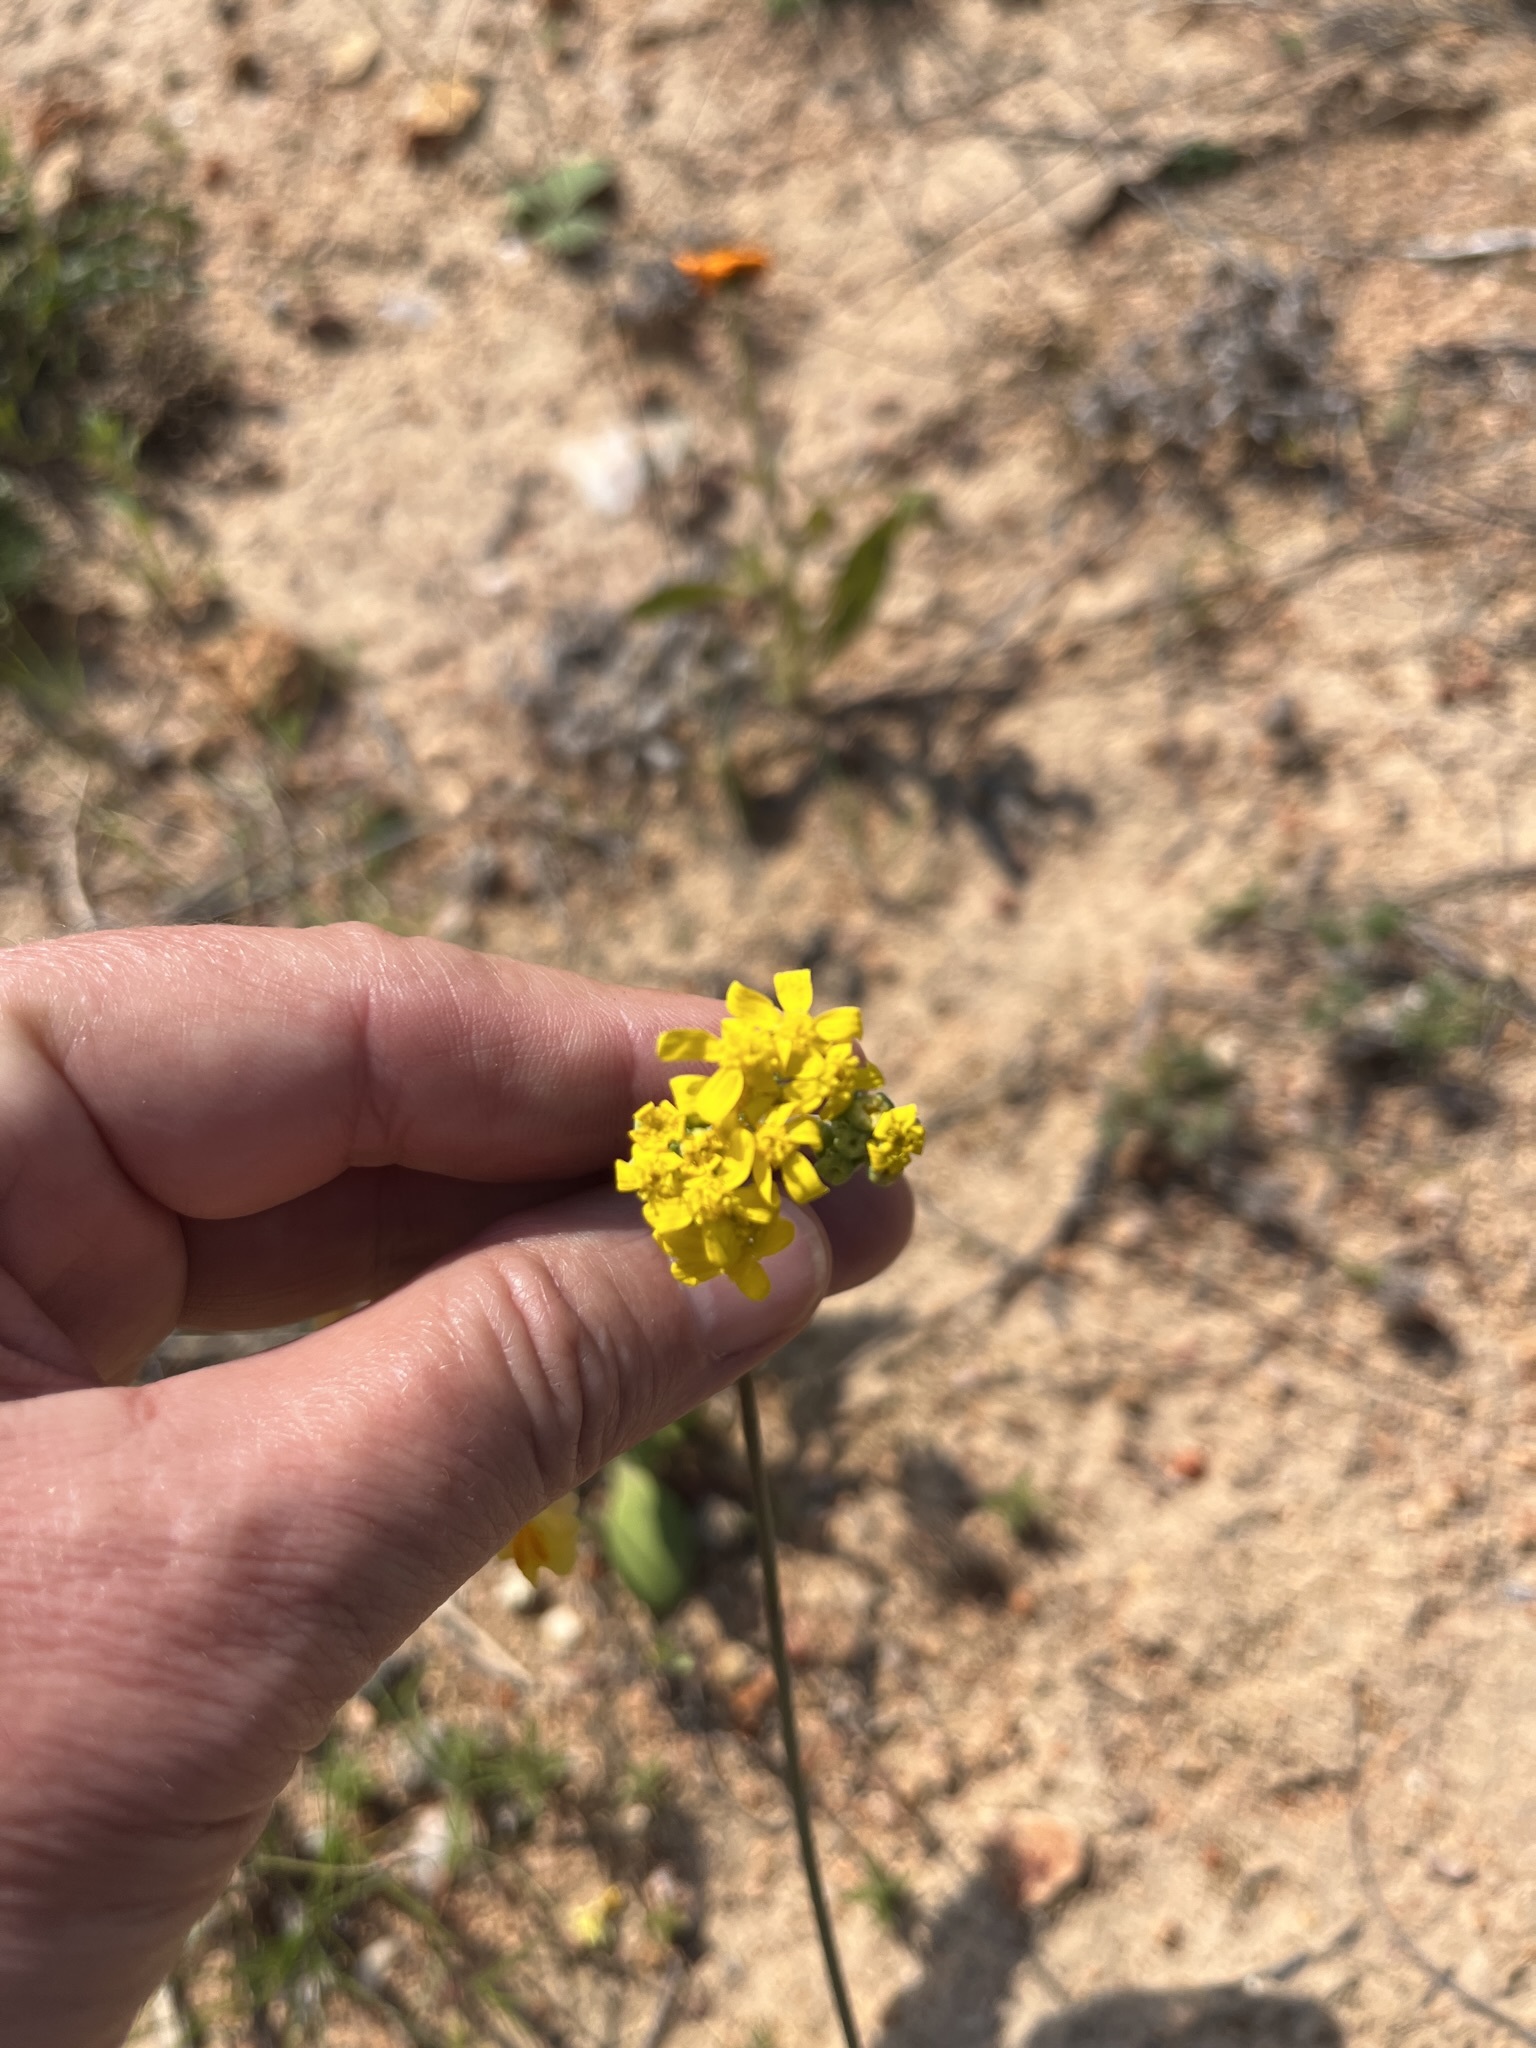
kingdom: Plantae
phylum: Tracheophyta
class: Magnoliopsida
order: Asterales
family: Asteraceae
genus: Gymnodiscus
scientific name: Gymnodiscus capillaris
